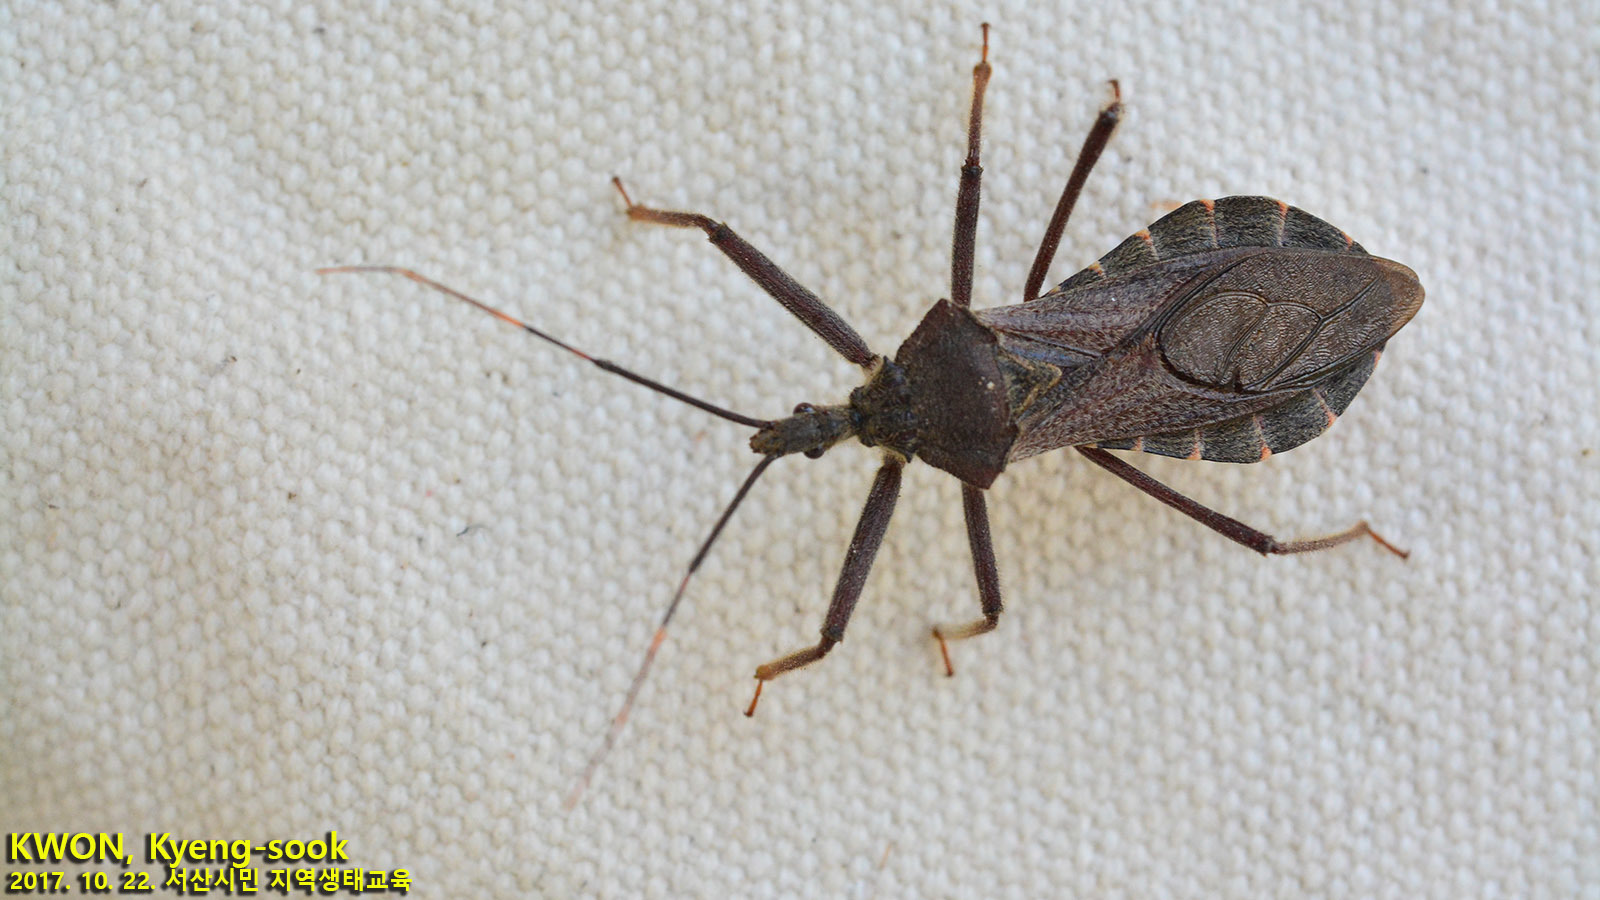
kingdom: Animalia
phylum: Arthropoda
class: Insecta
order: Hemiptera
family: Reduviidae
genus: Isyndus
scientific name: Isyndus obscurus
